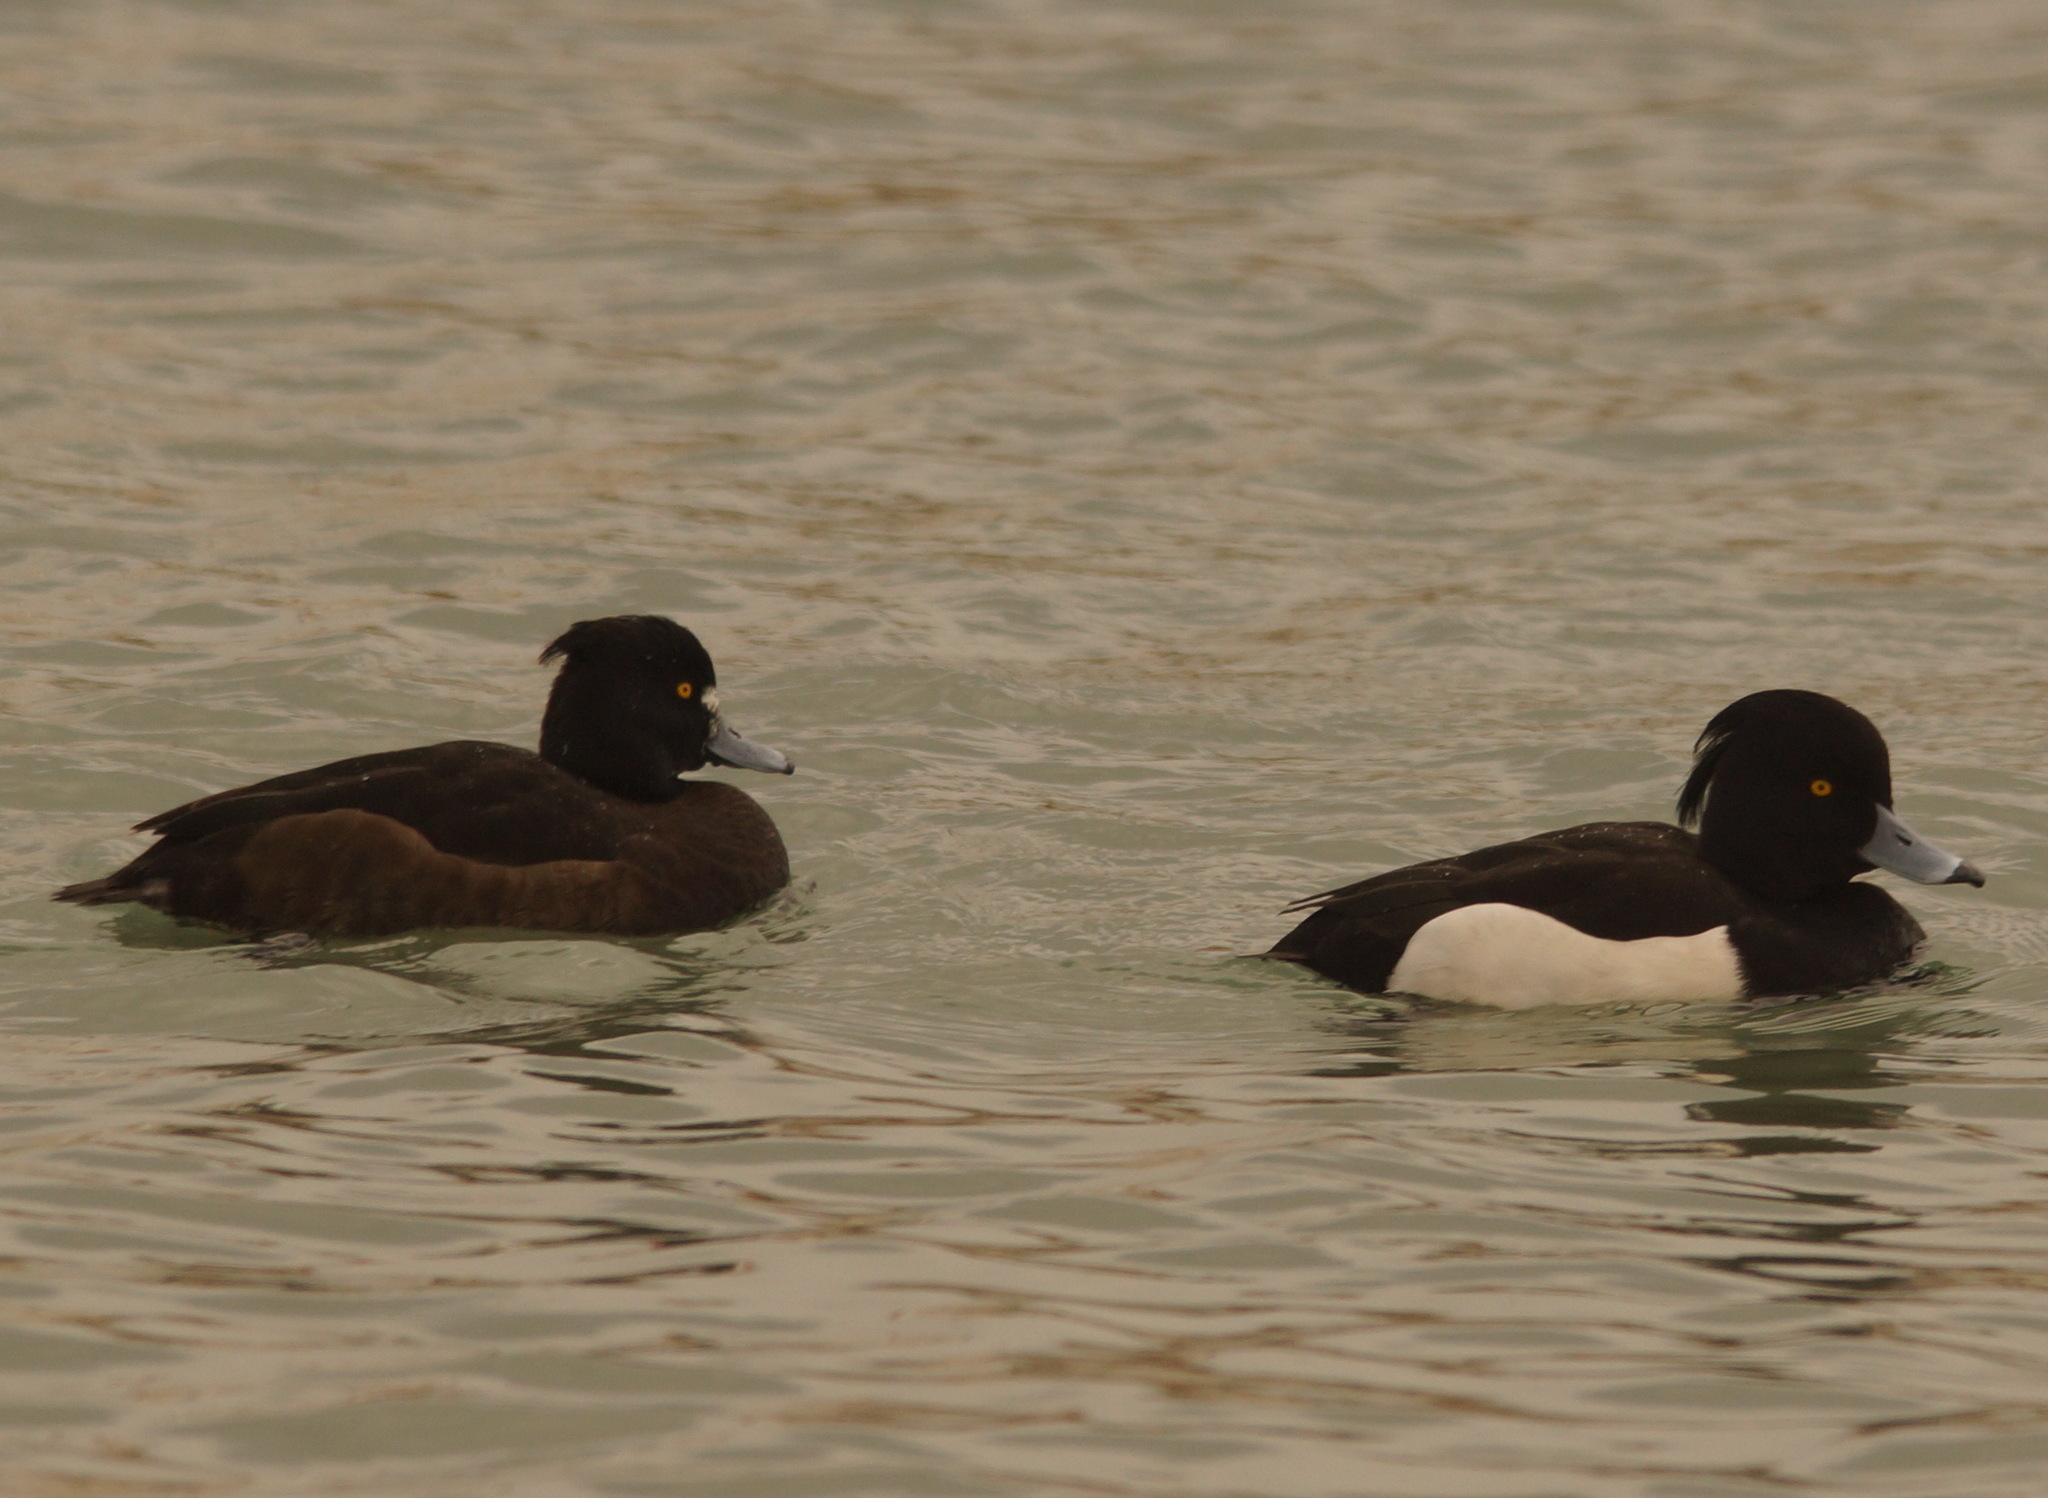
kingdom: Animalia
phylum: Chordata
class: Aves
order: Anseriformes
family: Anatidae
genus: Aythya
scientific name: Aythya fuligula
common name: Tufted duck
